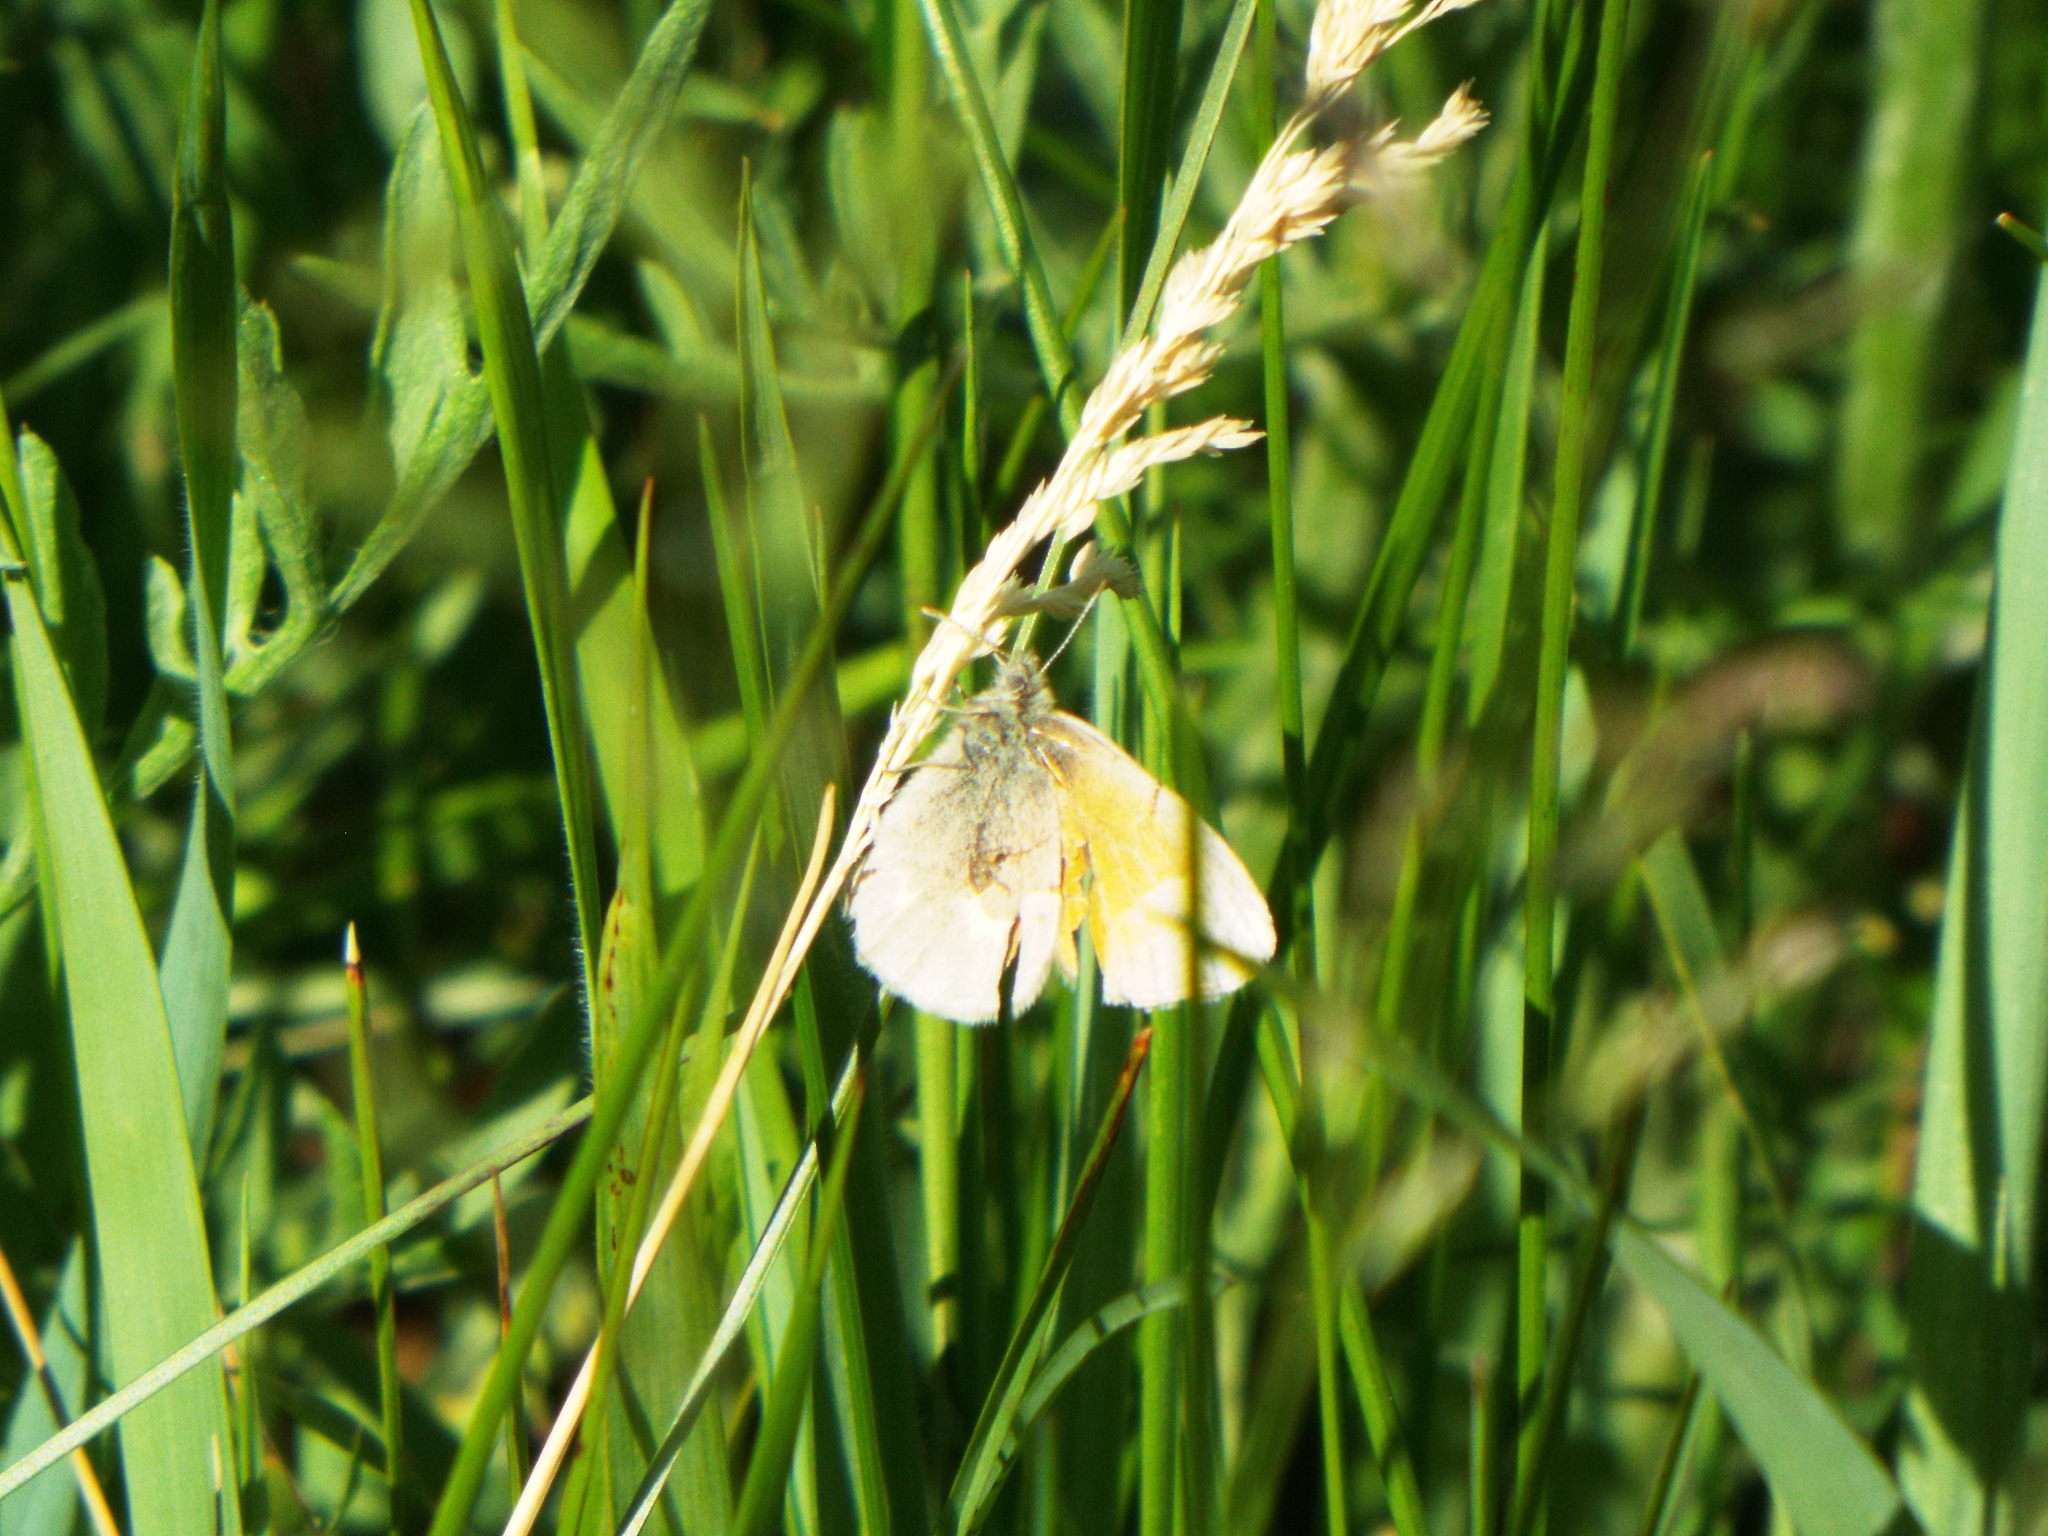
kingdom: Animalia
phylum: Arthropoda
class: Insecta
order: Lepidoptera
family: Nymphalidae
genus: Coenonympha
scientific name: Coenonympha california
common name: Common ringlet
